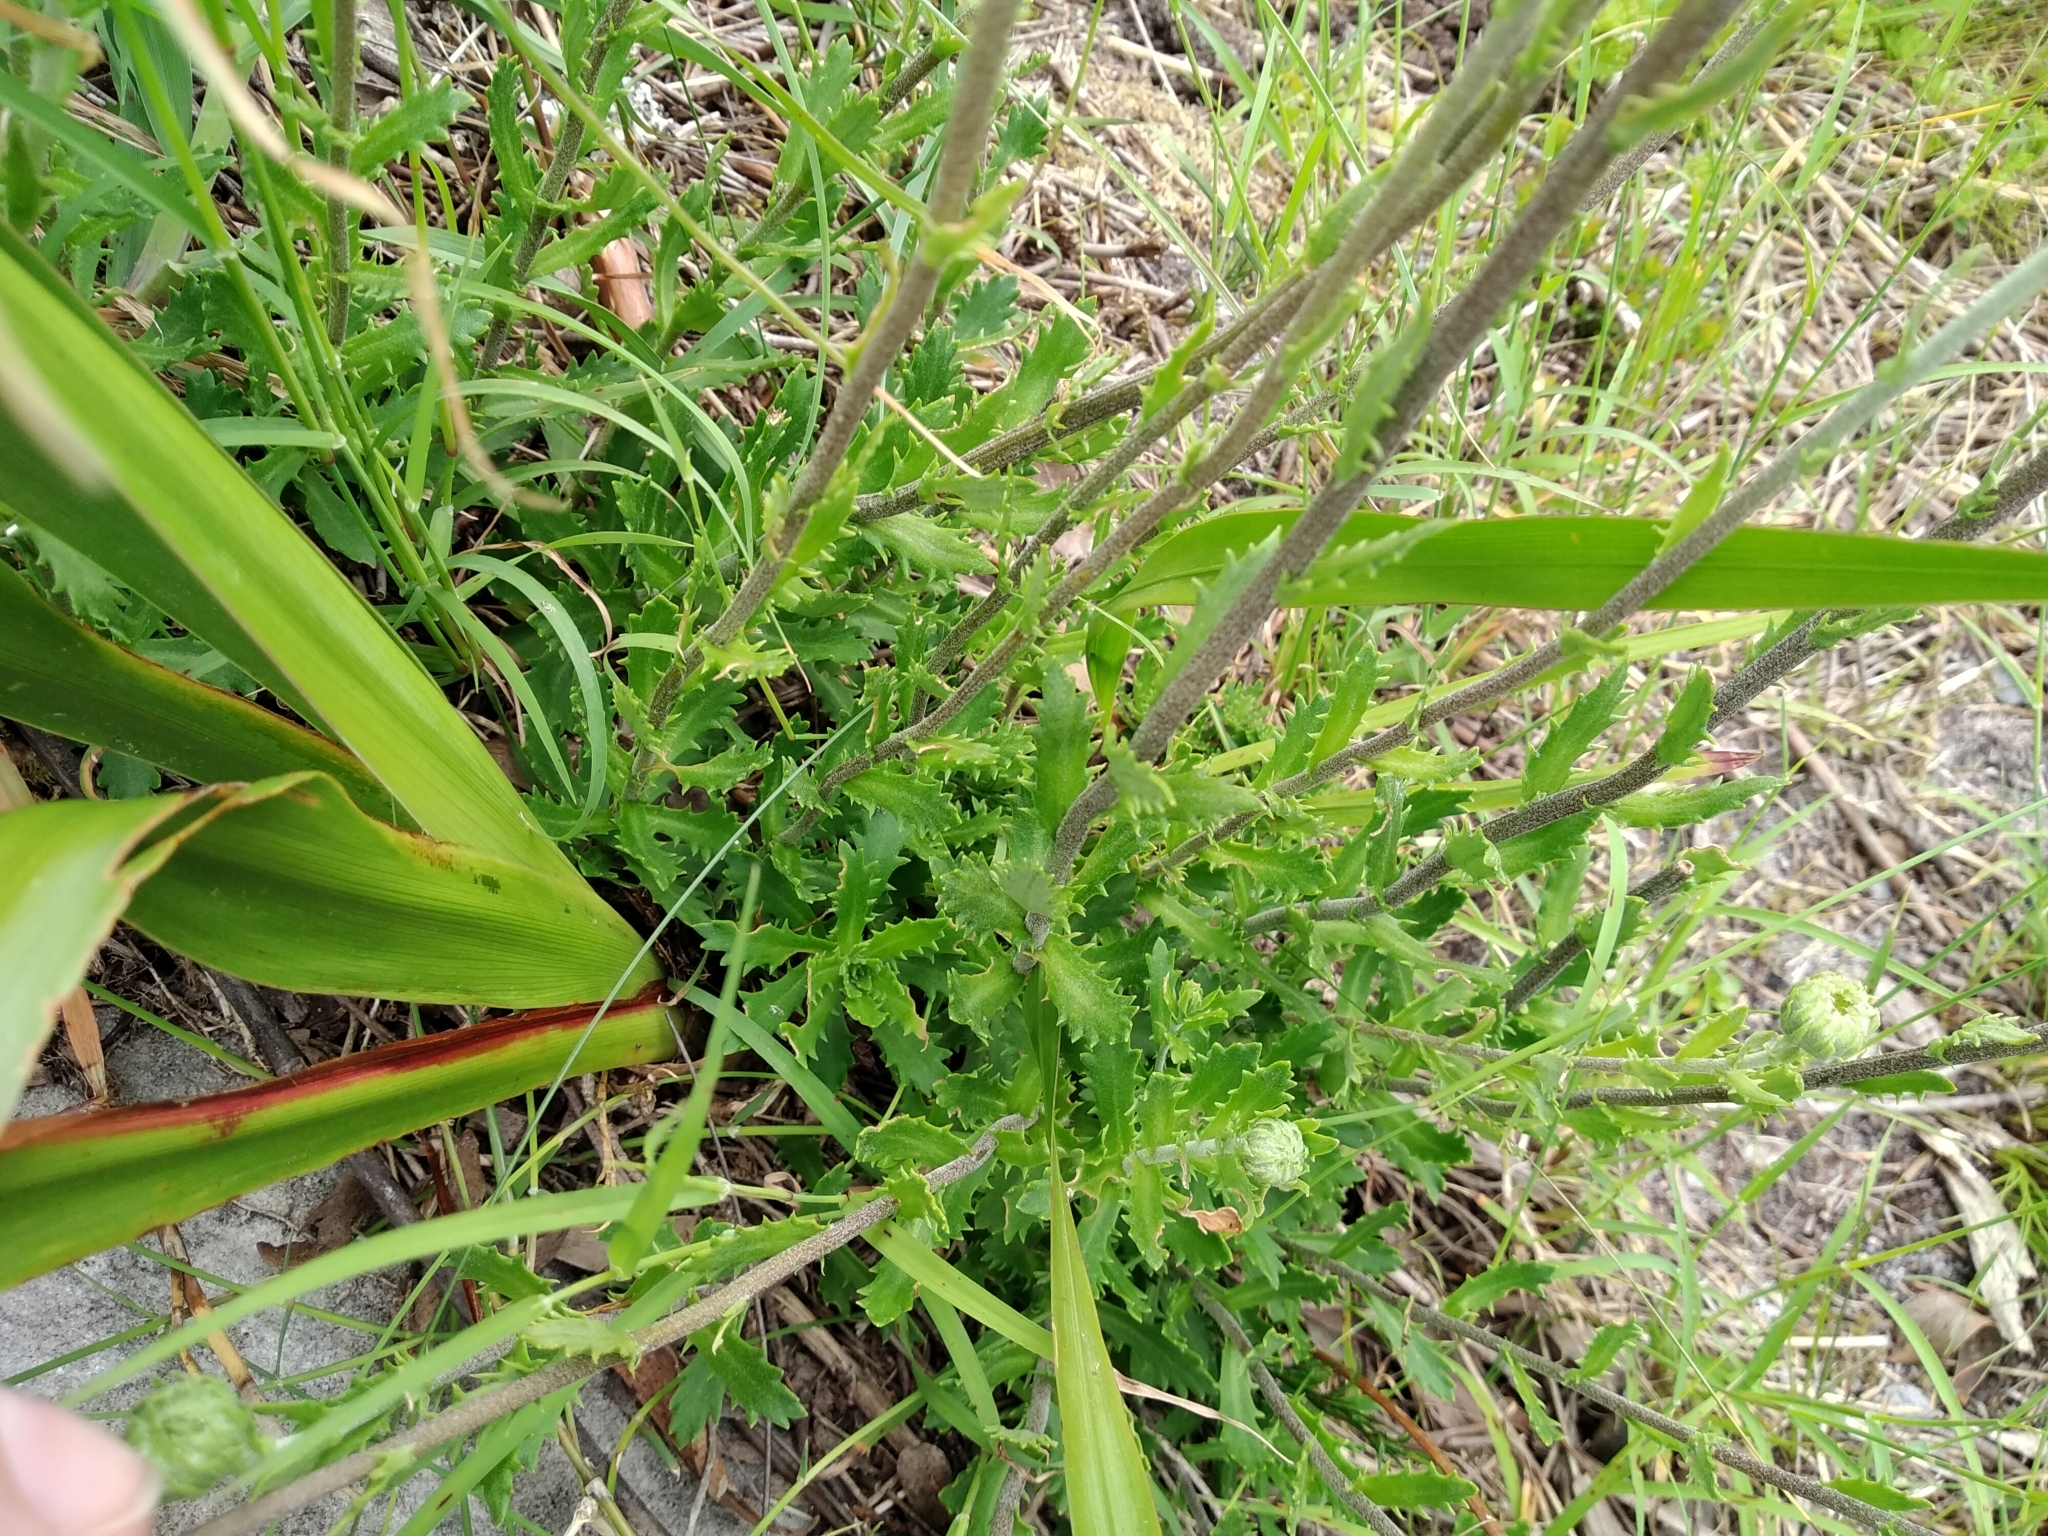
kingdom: Plantae
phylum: Tracheophyta
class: Magnoliopsida
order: Asterales
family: Asteraceae
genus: Osmitopsis
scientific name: Osmitopsis dentata
